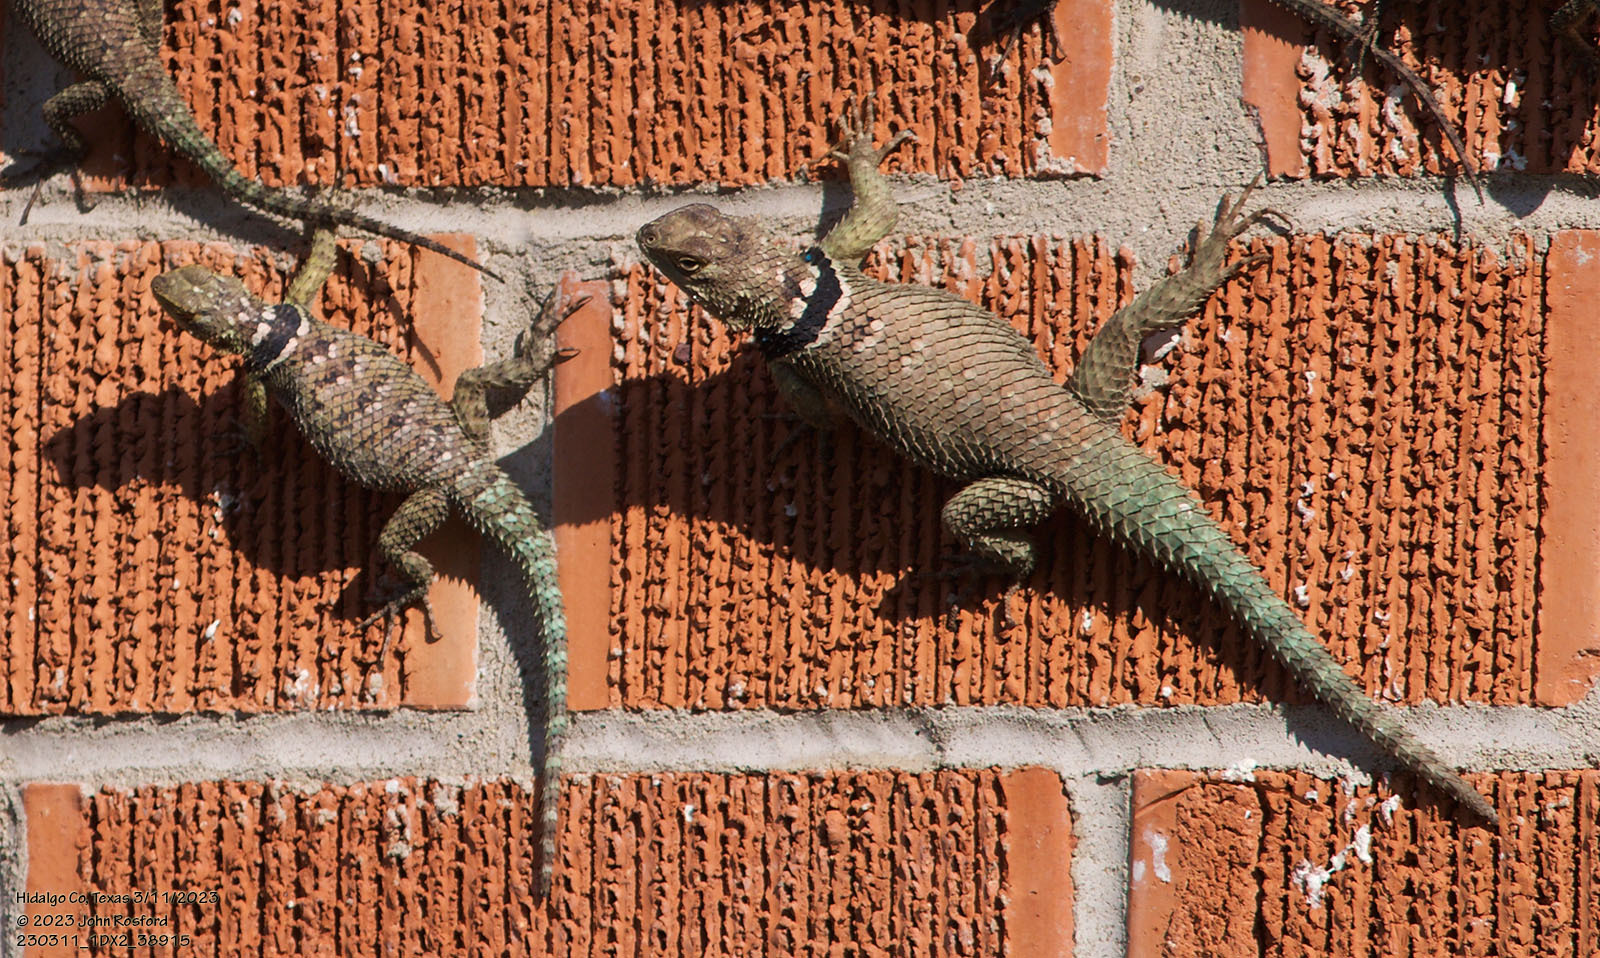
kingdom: Animalia
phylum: Chordata
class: Squamata
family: Phrynosomatidae
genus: Sceloporus
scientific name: Sceloporus cyanogenys
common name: Blue spiny lizard
